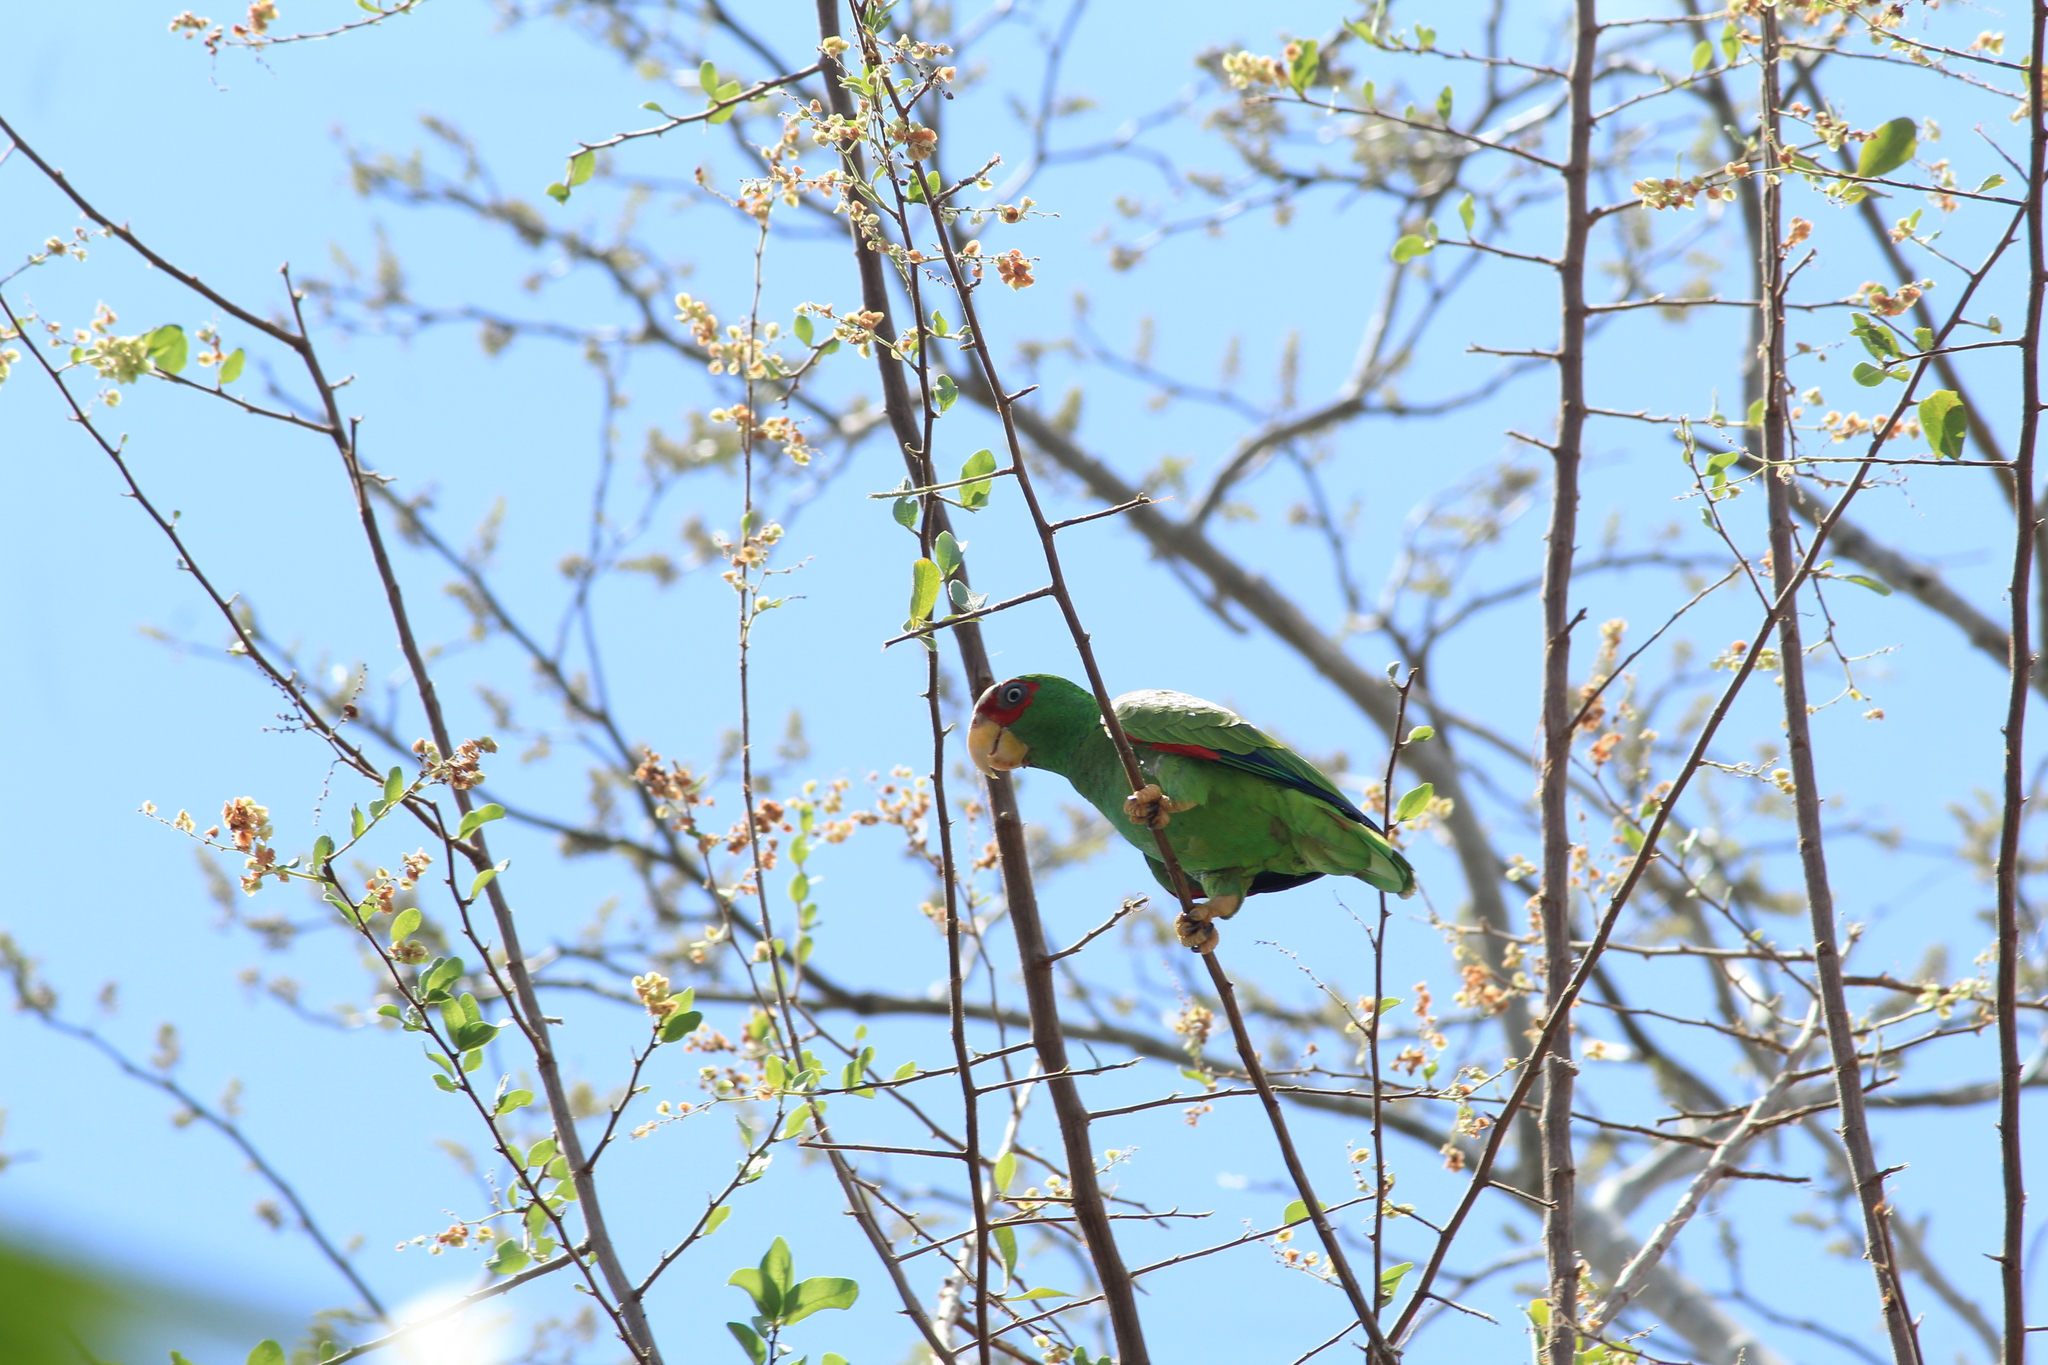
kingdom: Animalia
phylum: Chordata
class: Aves
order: Psittaciformes
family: Psittacidae
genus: Amazona
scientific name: Amazona albifrons
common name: White-fronted amazon
